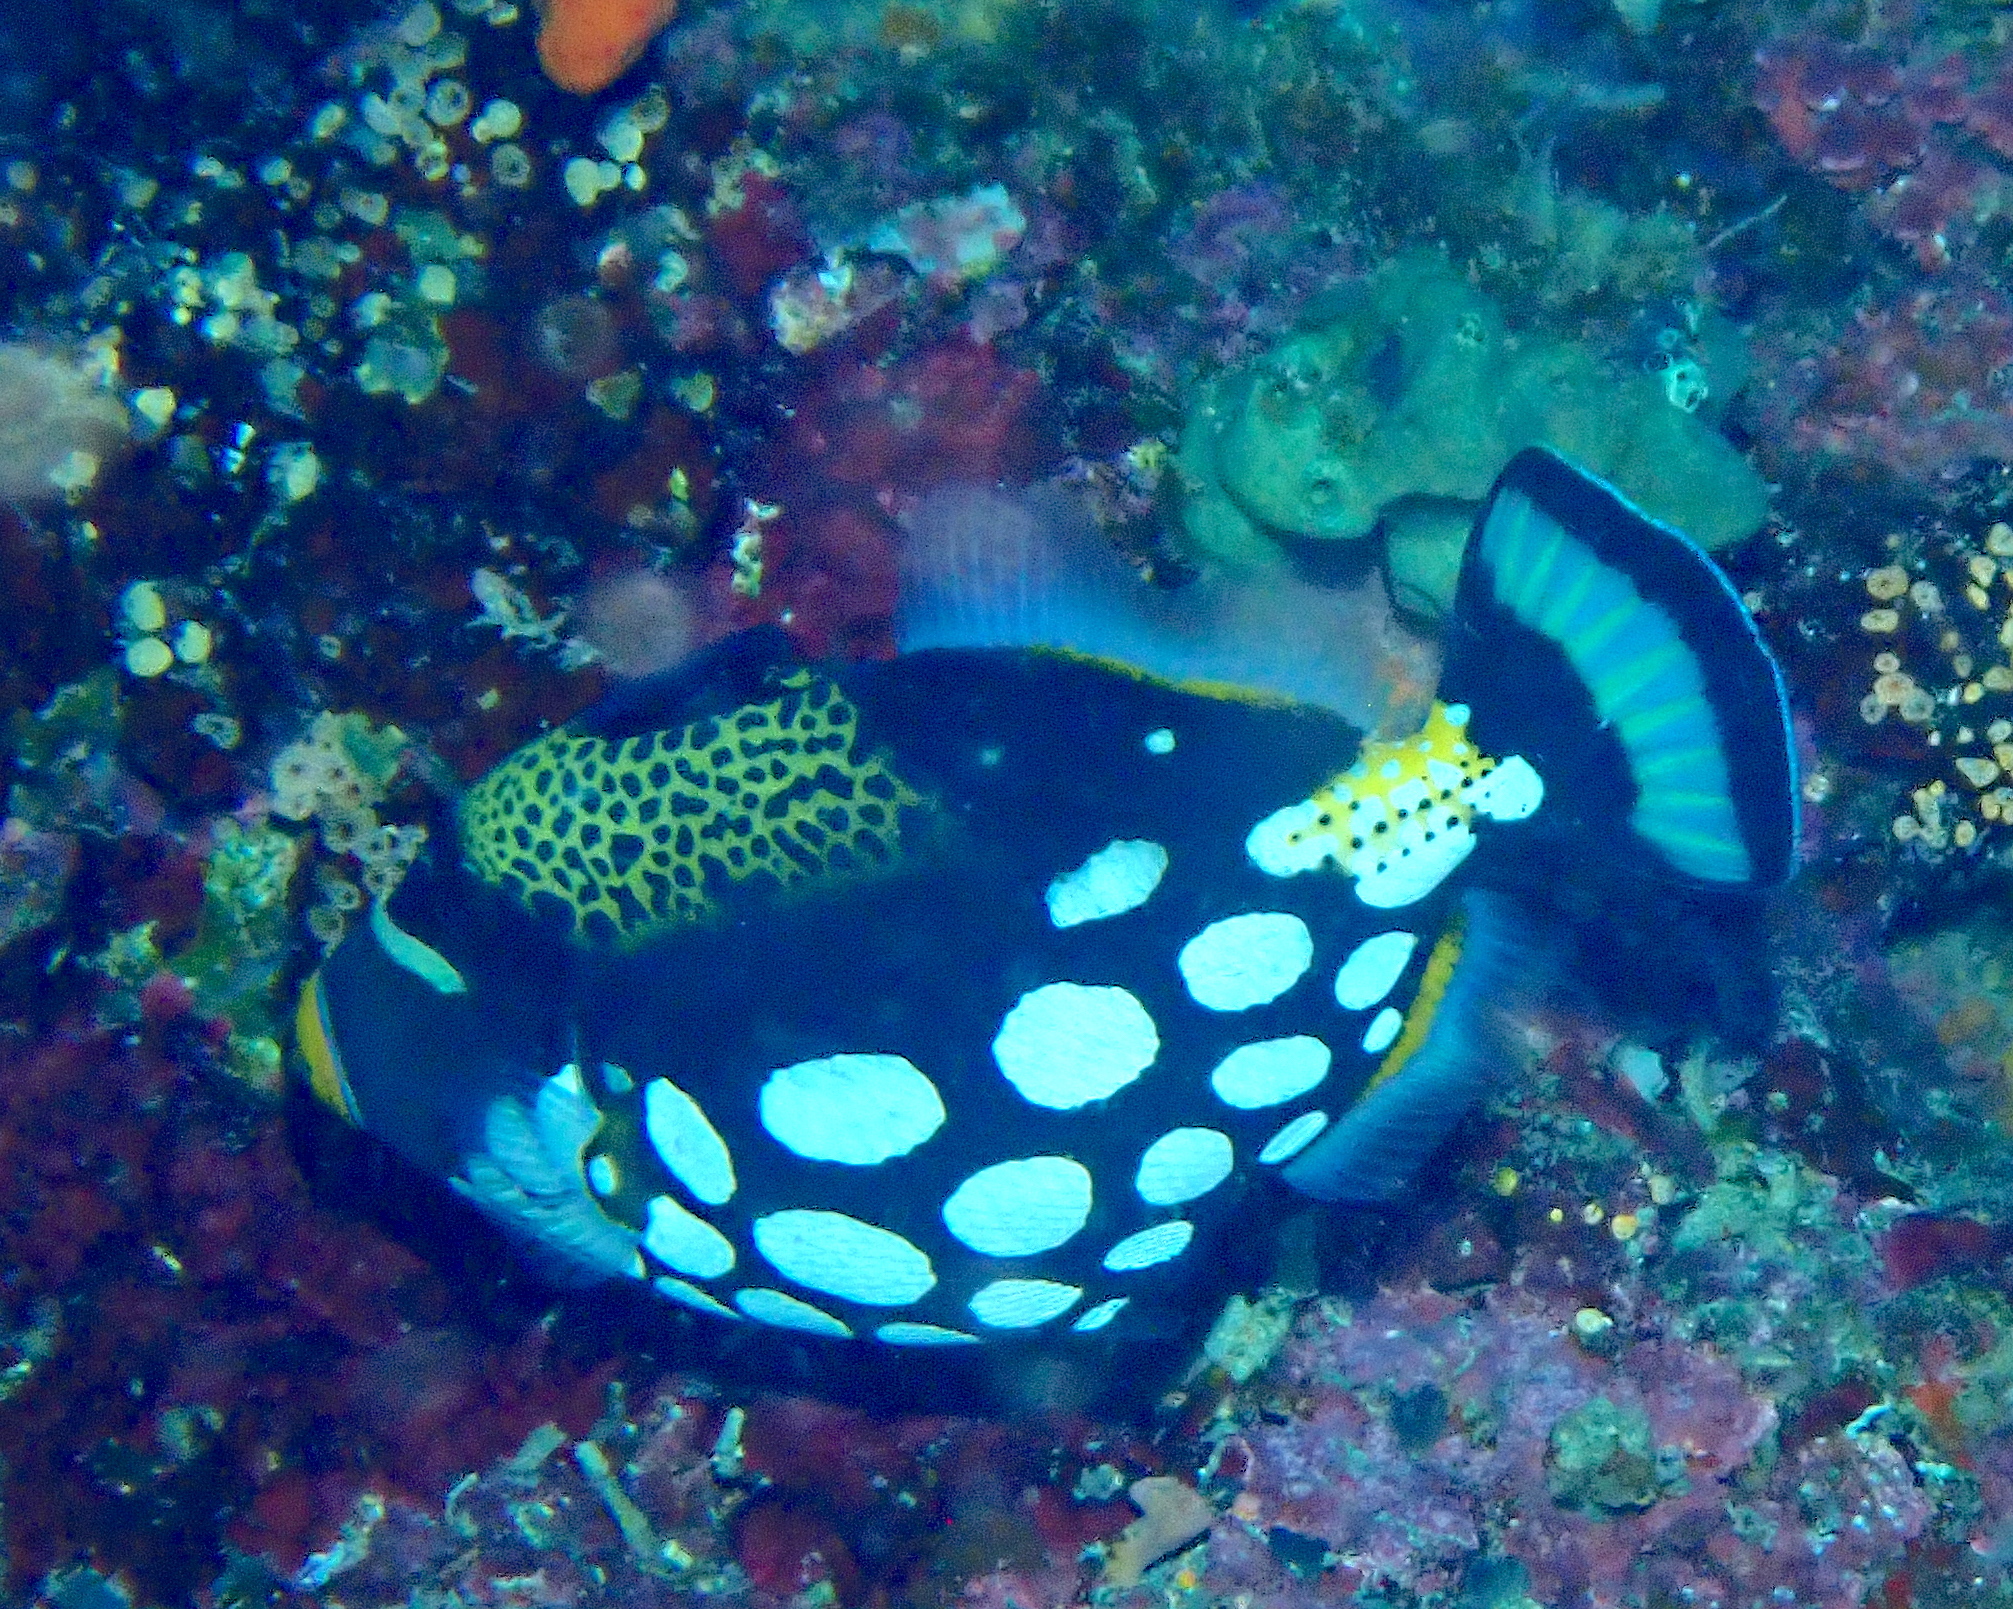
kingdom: Animalia
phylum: Chordata
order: Tetraodontiformes
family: Balistidae
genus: Balistoides
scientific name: Balistoides conspicillum
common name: Clown triggerfish
